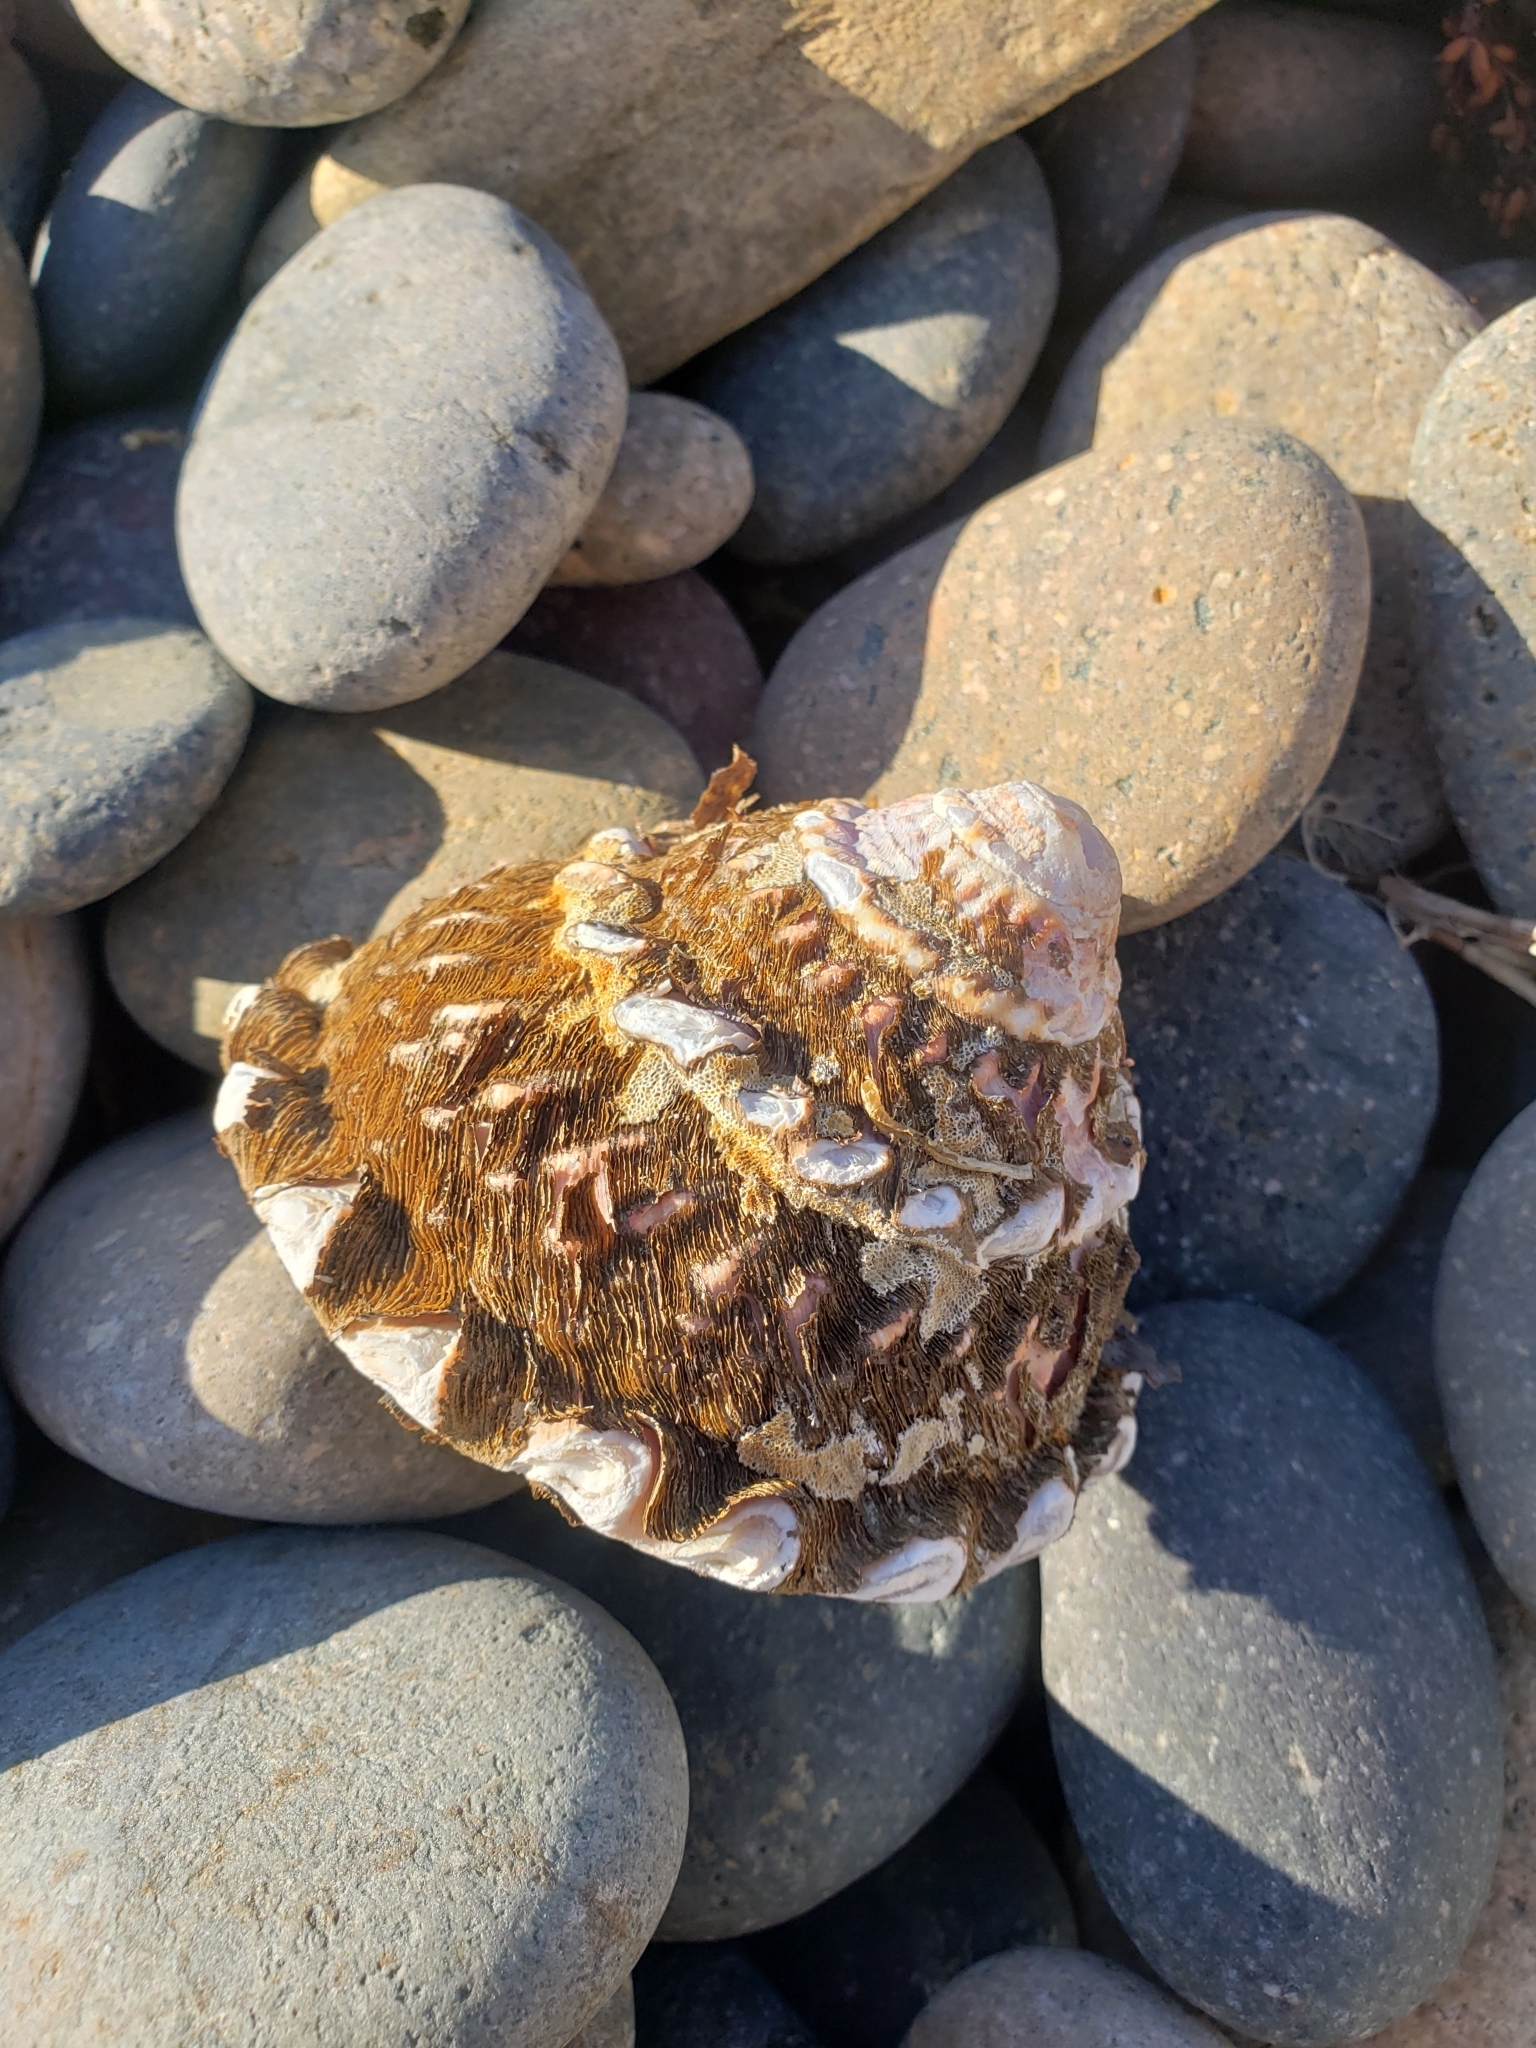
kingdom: Animalia
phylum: Mollusca
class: Gastropoda
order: Trochida
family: Turbinidae
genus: Megastraea
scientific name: Megastraea undosa
